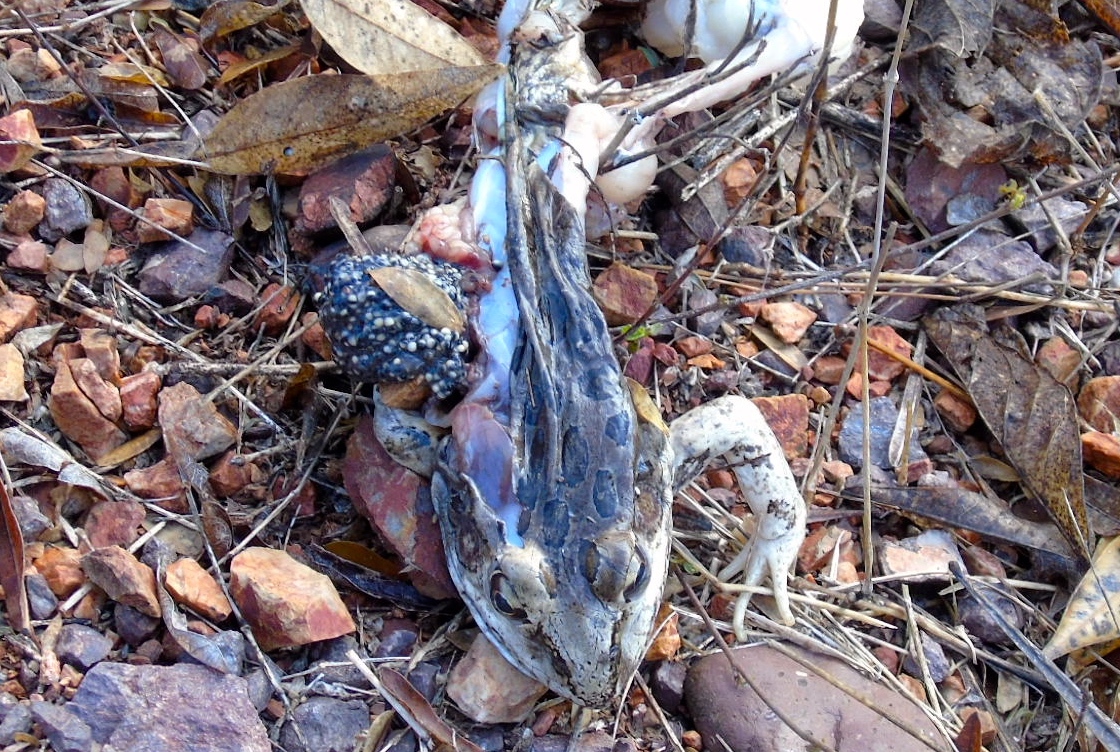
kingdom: Animalia
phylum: Chordata
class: Amphibia
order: Anura
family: Ranidae
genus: Lithobates
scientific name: Lithobates forreri
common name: Forrer's grass frog
